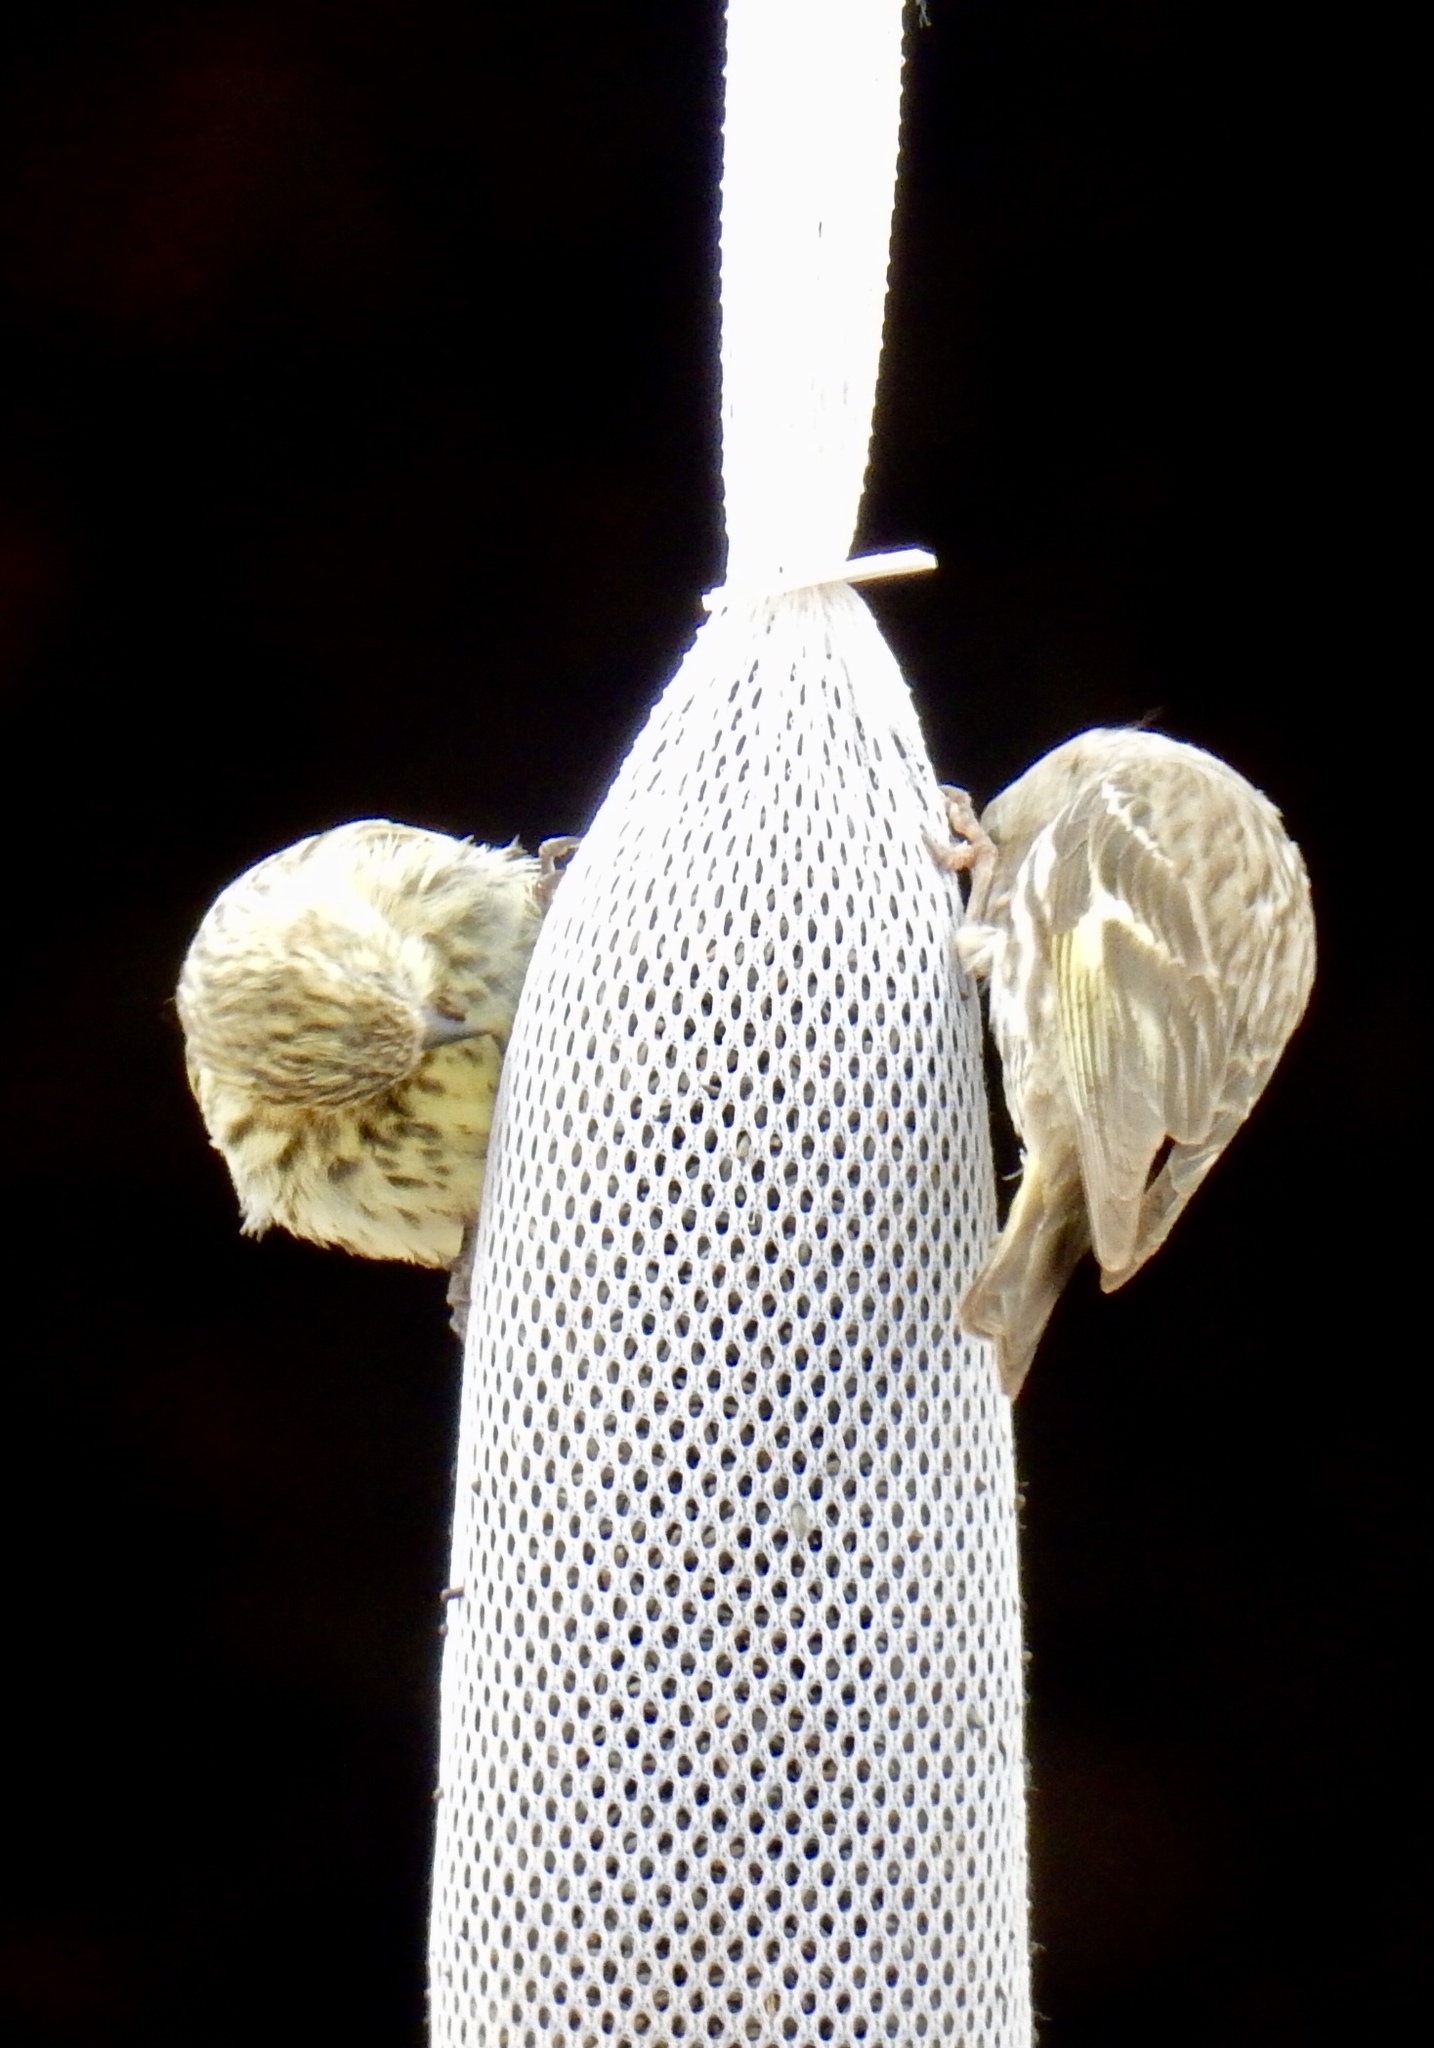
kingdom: Animalia
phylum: Chordata
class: Aves
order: Passeriformes
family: Fringillidae
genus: Spinus
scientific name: Spinus pinus
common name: Pine siskin
